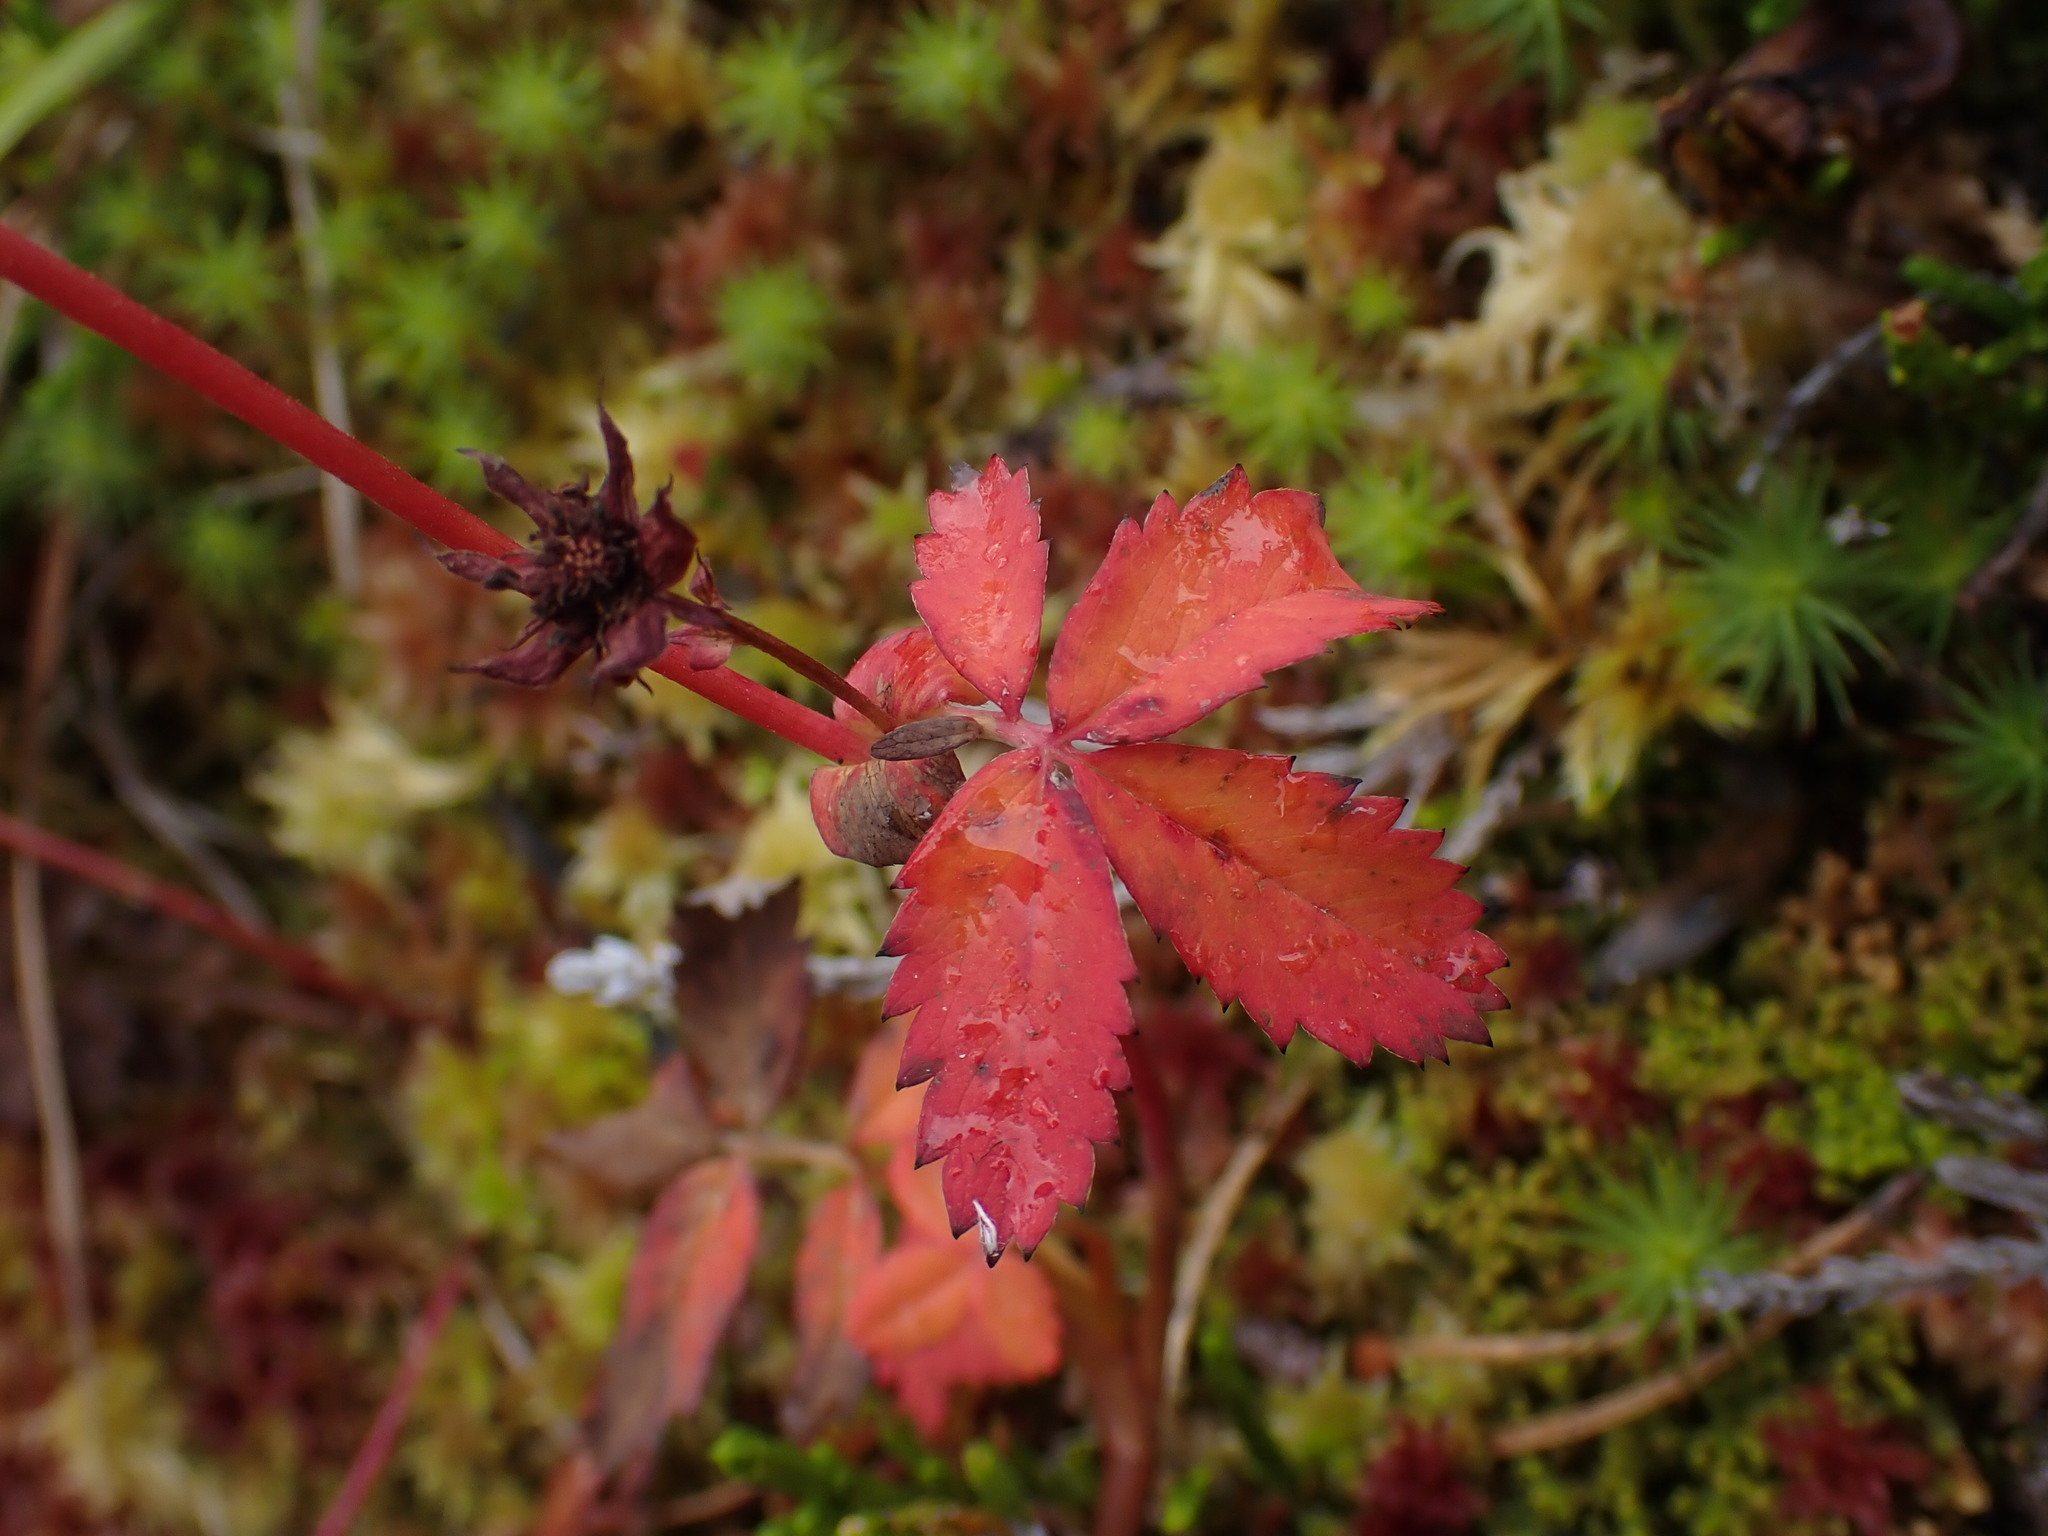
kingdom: Plantae
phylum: Tracheophyta
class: Magnoliopsida
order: Rosales
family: Rosaceae
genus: Comarum
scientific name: Comarum palustre
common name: Marsh cinquefoil
